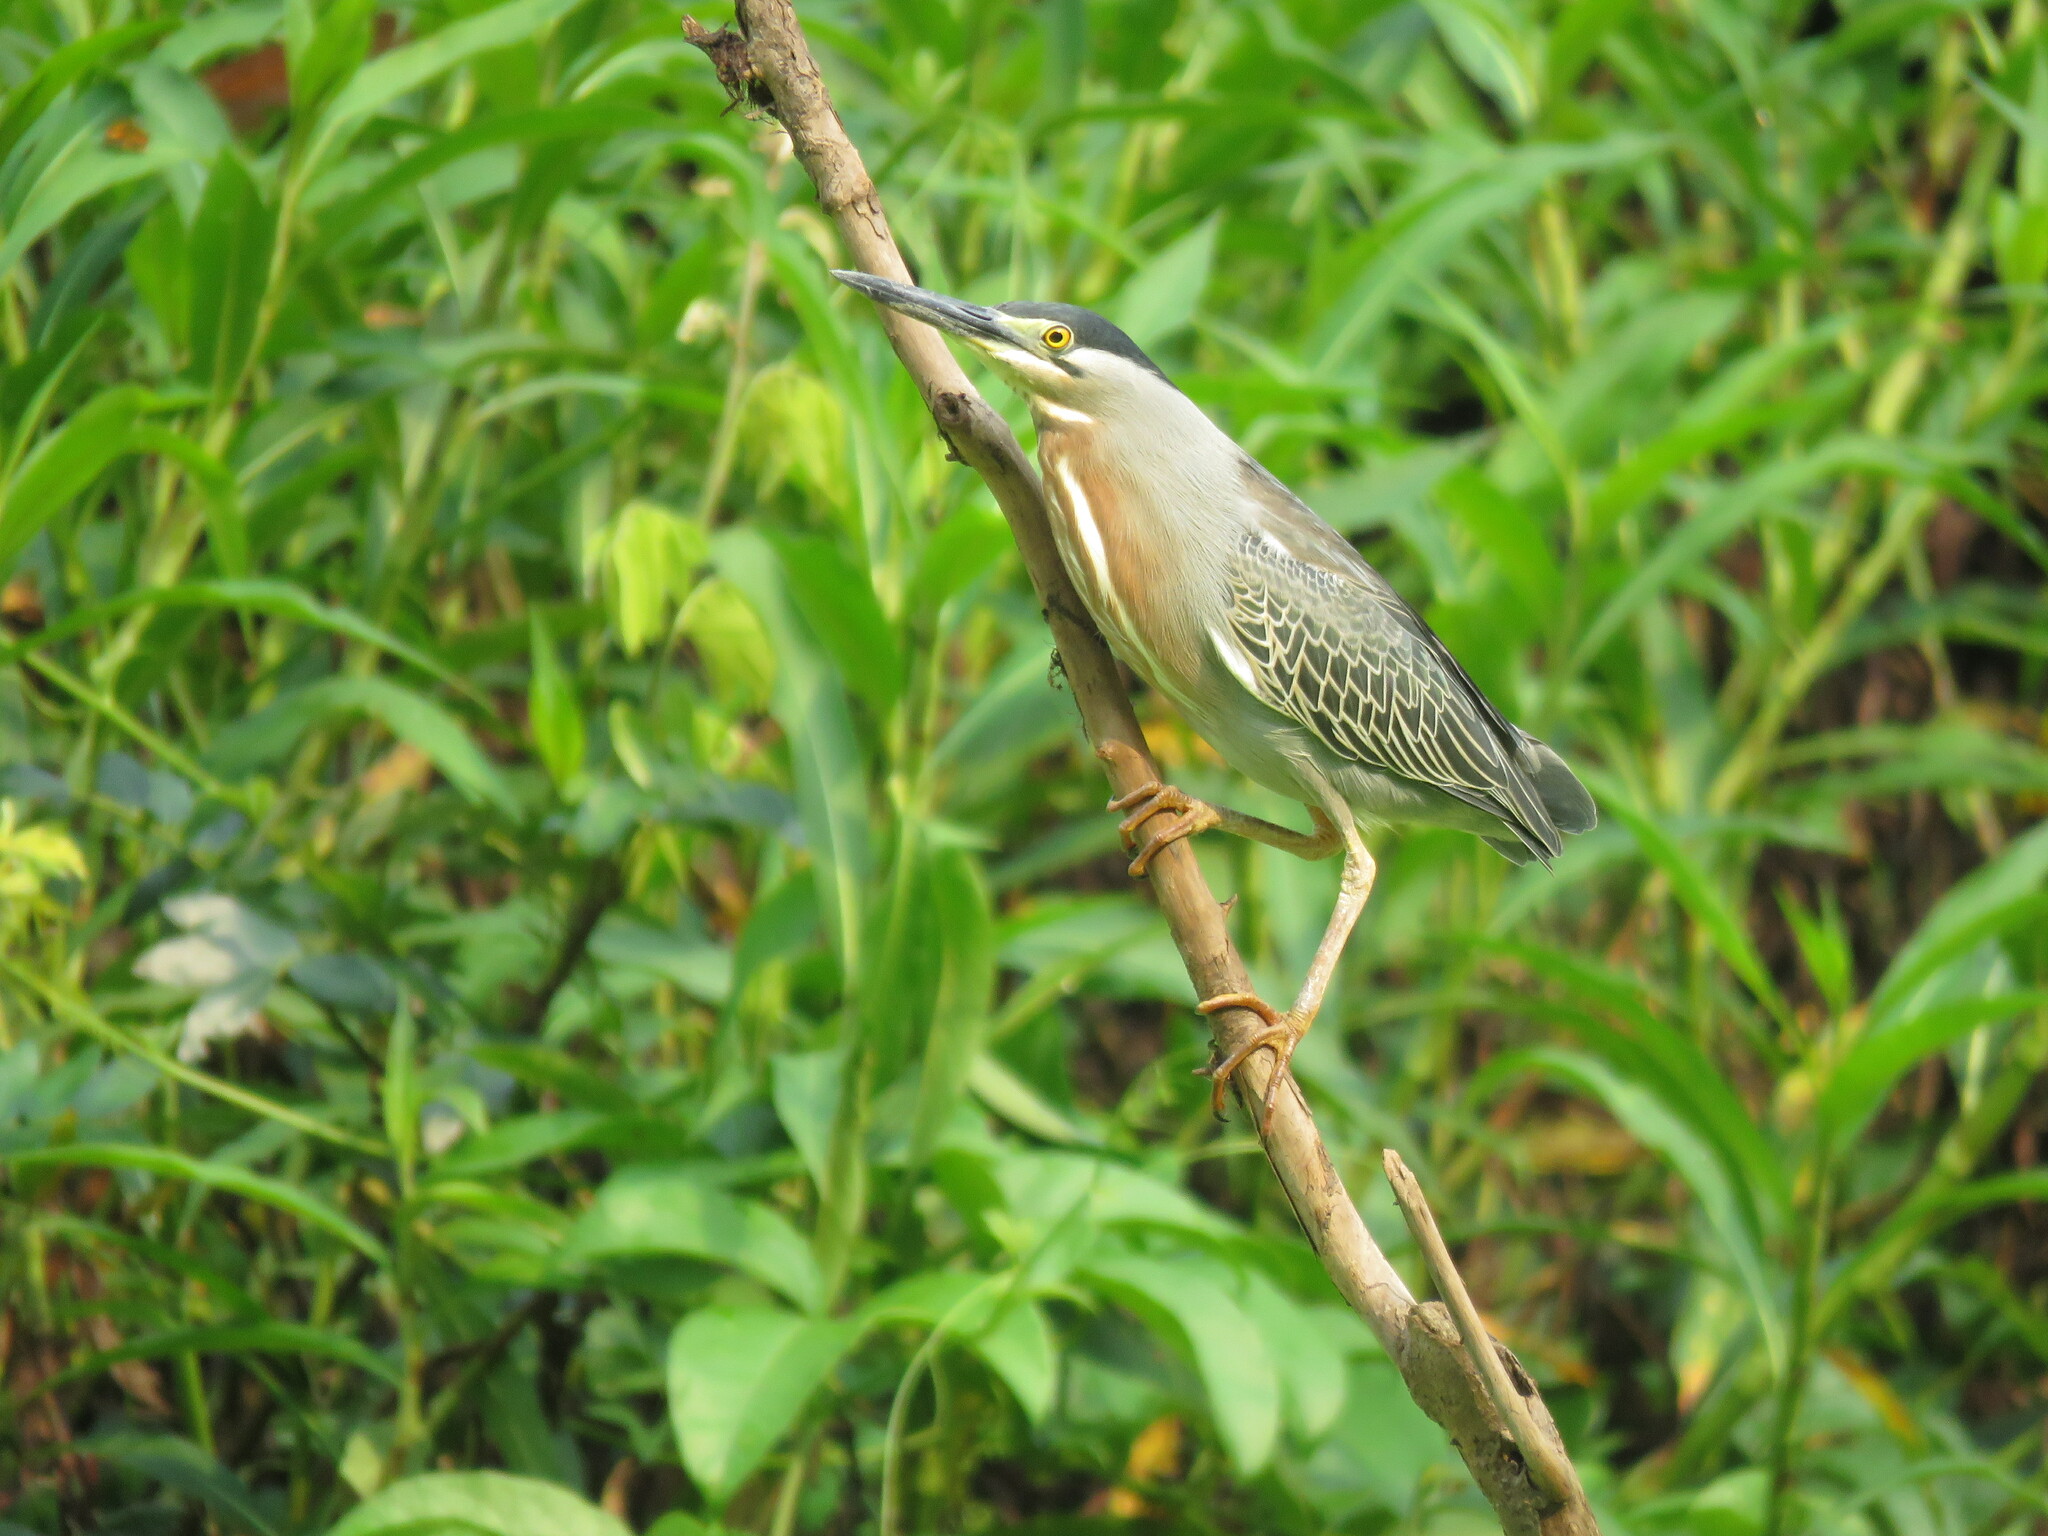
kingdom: Animalia
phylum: Chordata
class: Aves
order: Pelecaniformes
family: Ardeidae
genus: Butorides
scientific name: Butorides striata
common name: Striated heron
